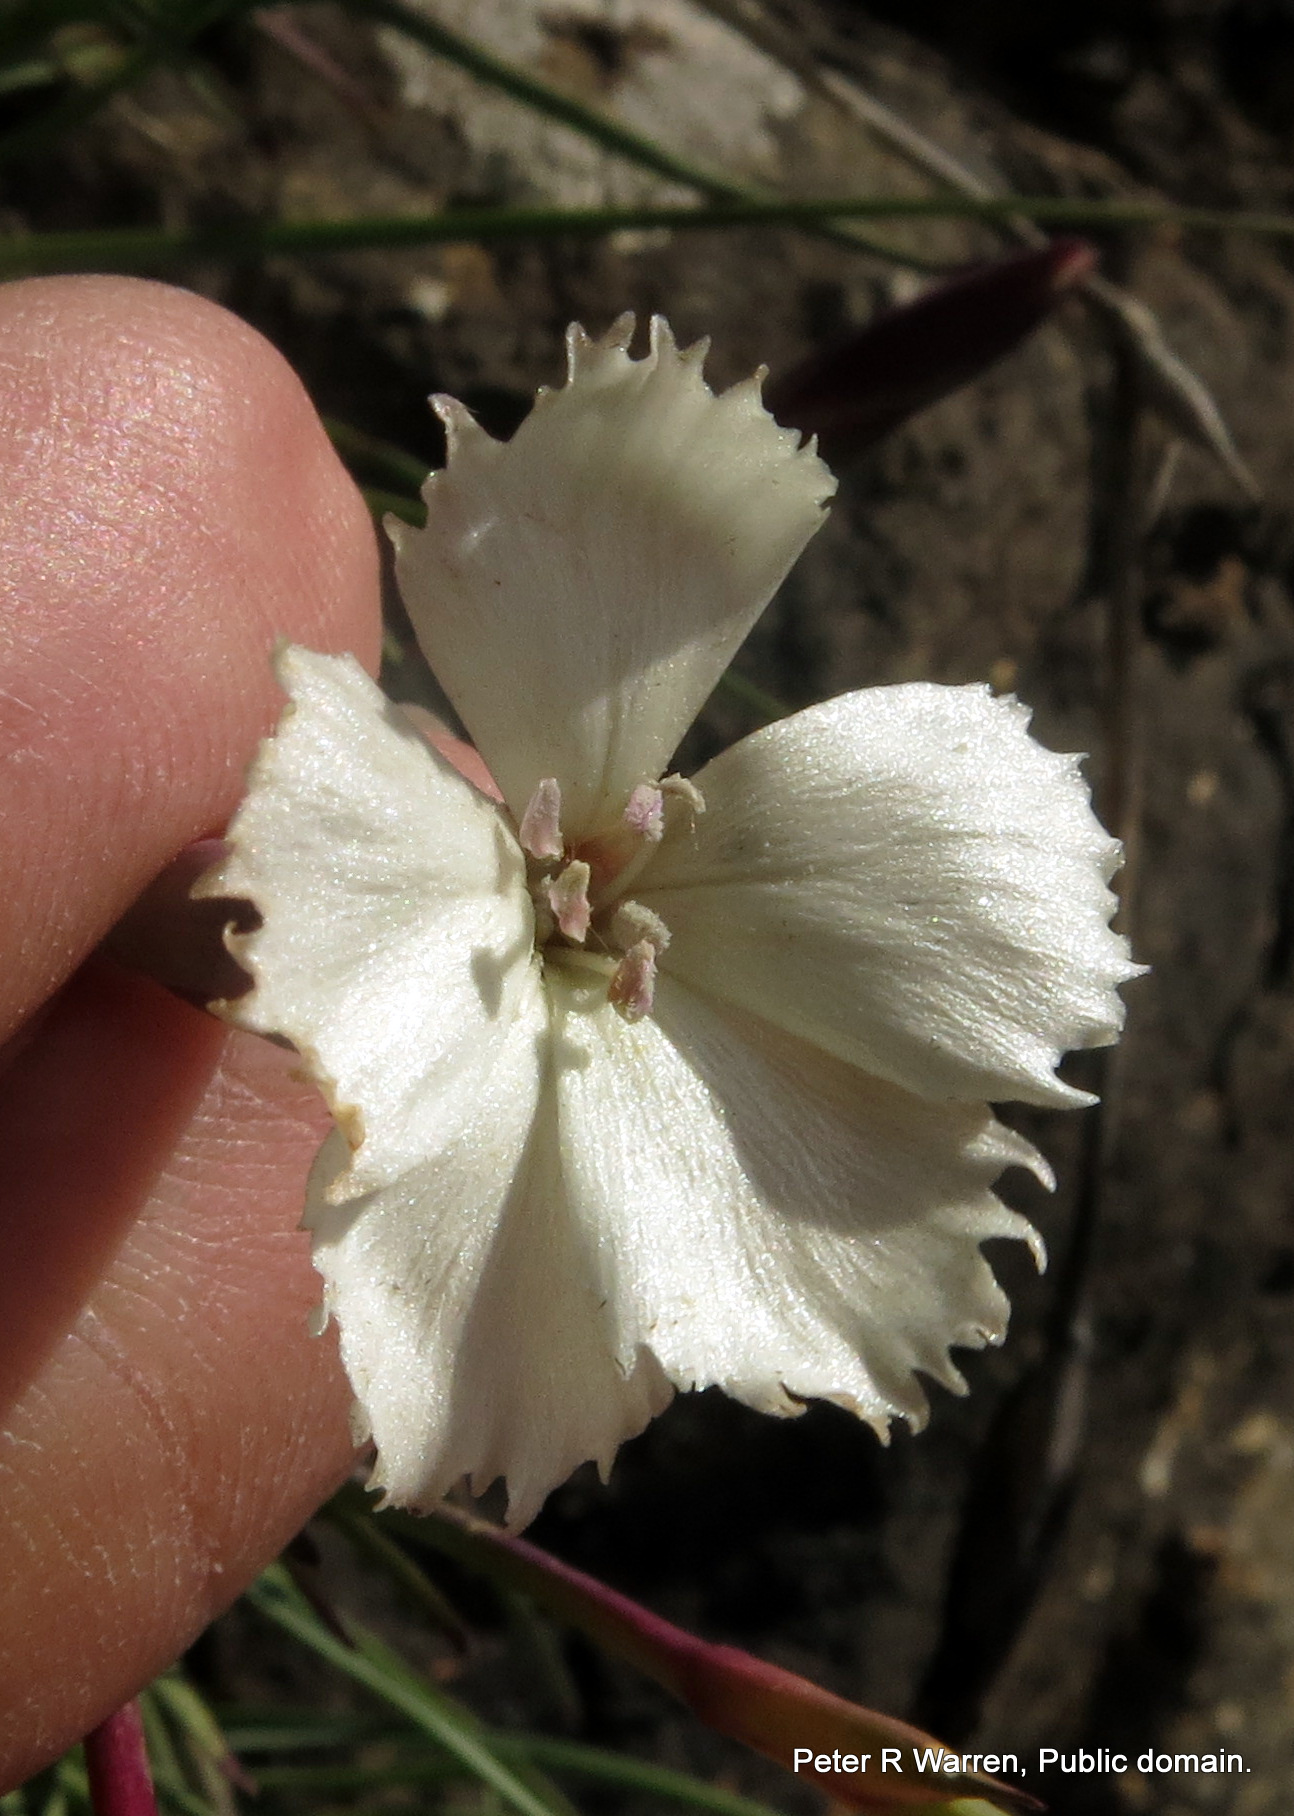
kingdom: Plantae
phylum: Tracheophyta
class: Magnoliopsida
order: Caryophyllales
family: Caryophyllaceae
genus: Dianthus
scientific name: Dianthus basuticus
